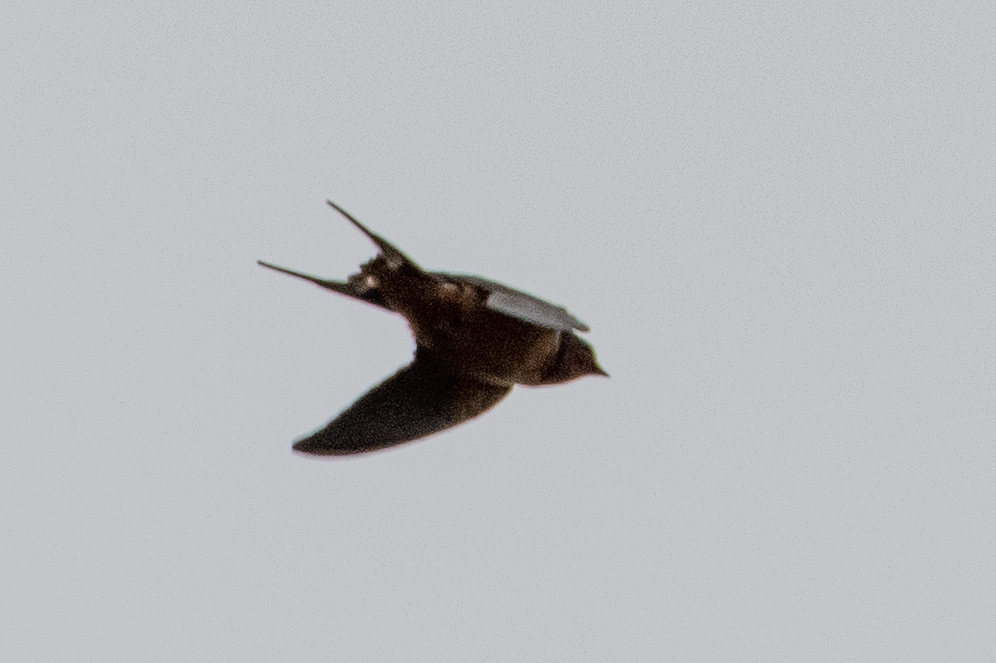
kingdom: Animalia
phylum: Chordata
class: Aves
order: Passeriformes
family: Hirundinidae
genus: Hirundo
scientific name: Hirundo rustica
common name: Barn swallow
